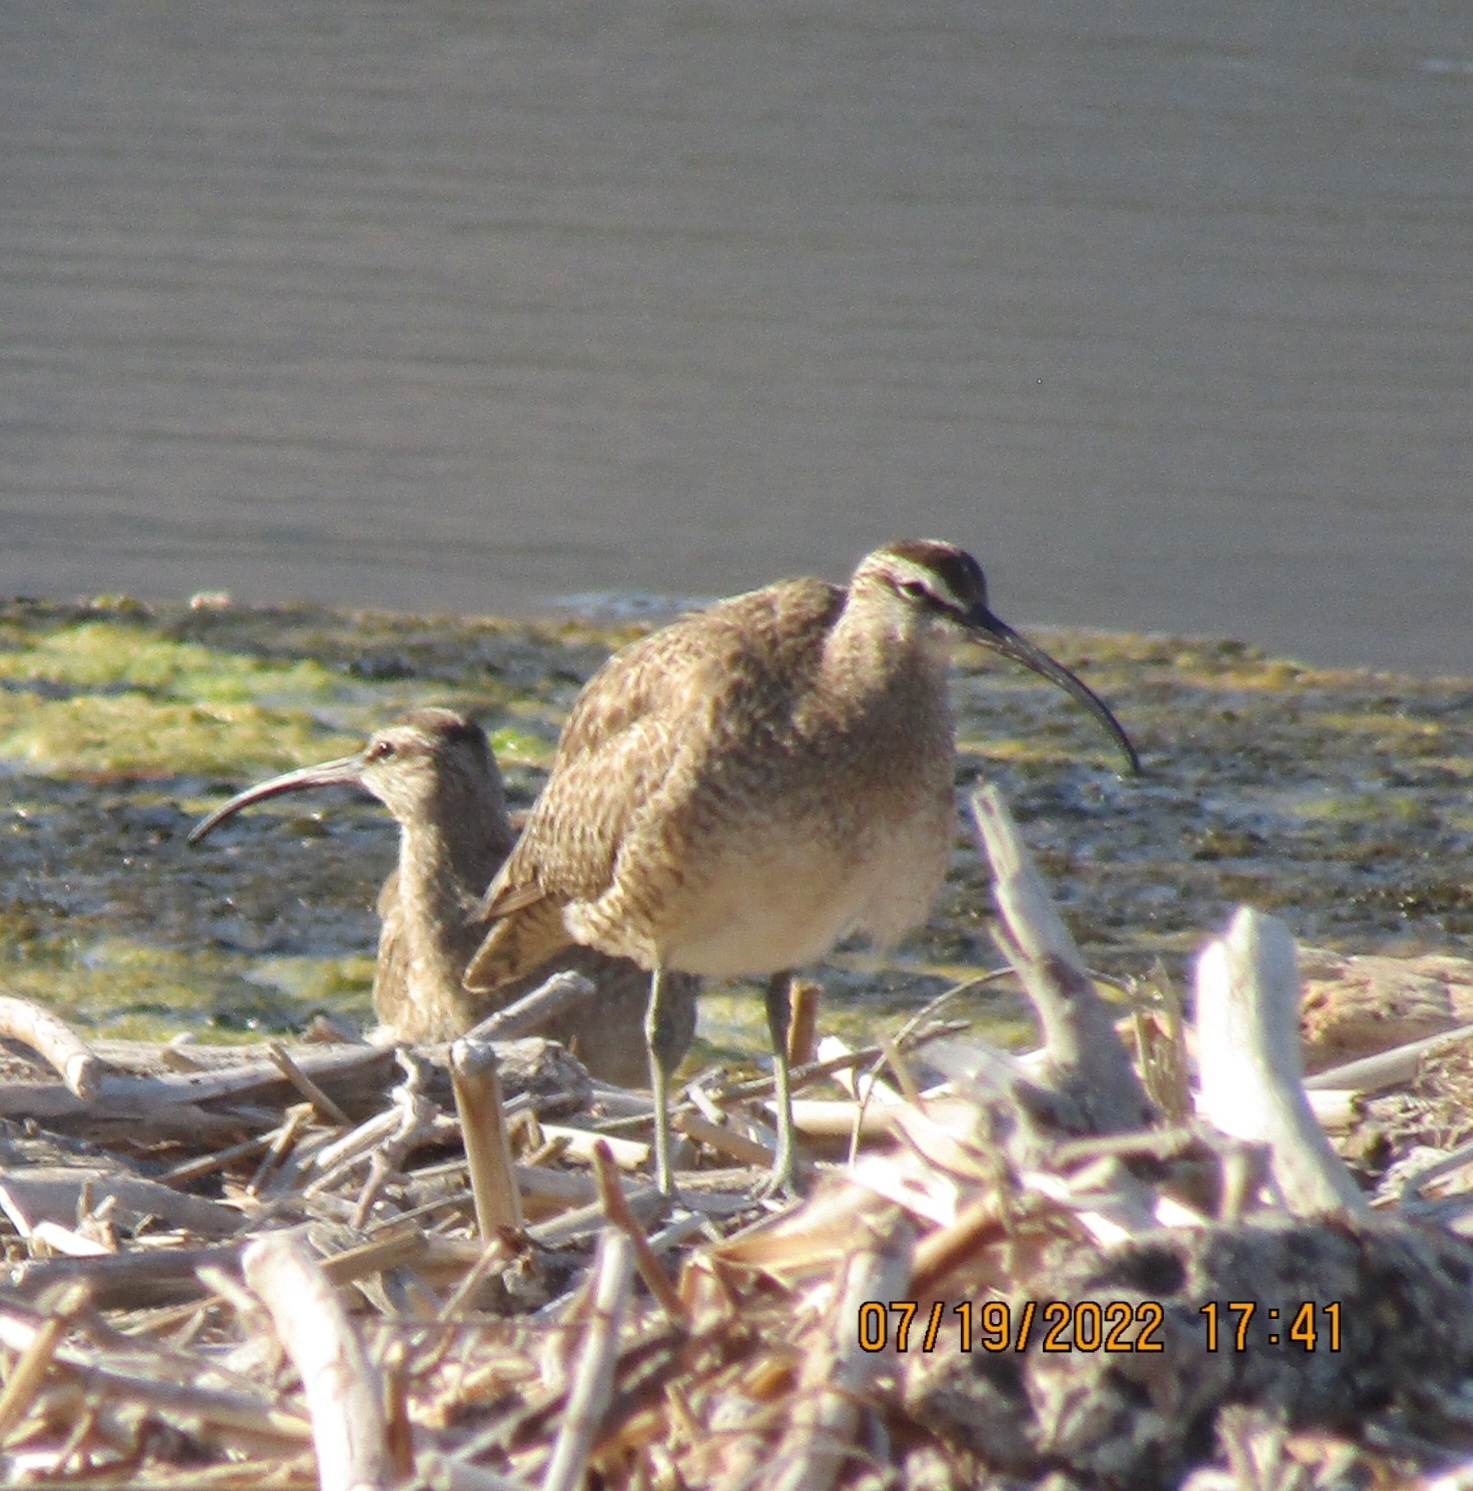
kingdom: Animalia
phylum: Chordata
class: Aves
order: Charadriiformes
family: Scolopacidae
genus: Numenius
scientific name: Numenius phaeopus
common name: Whimbrel
